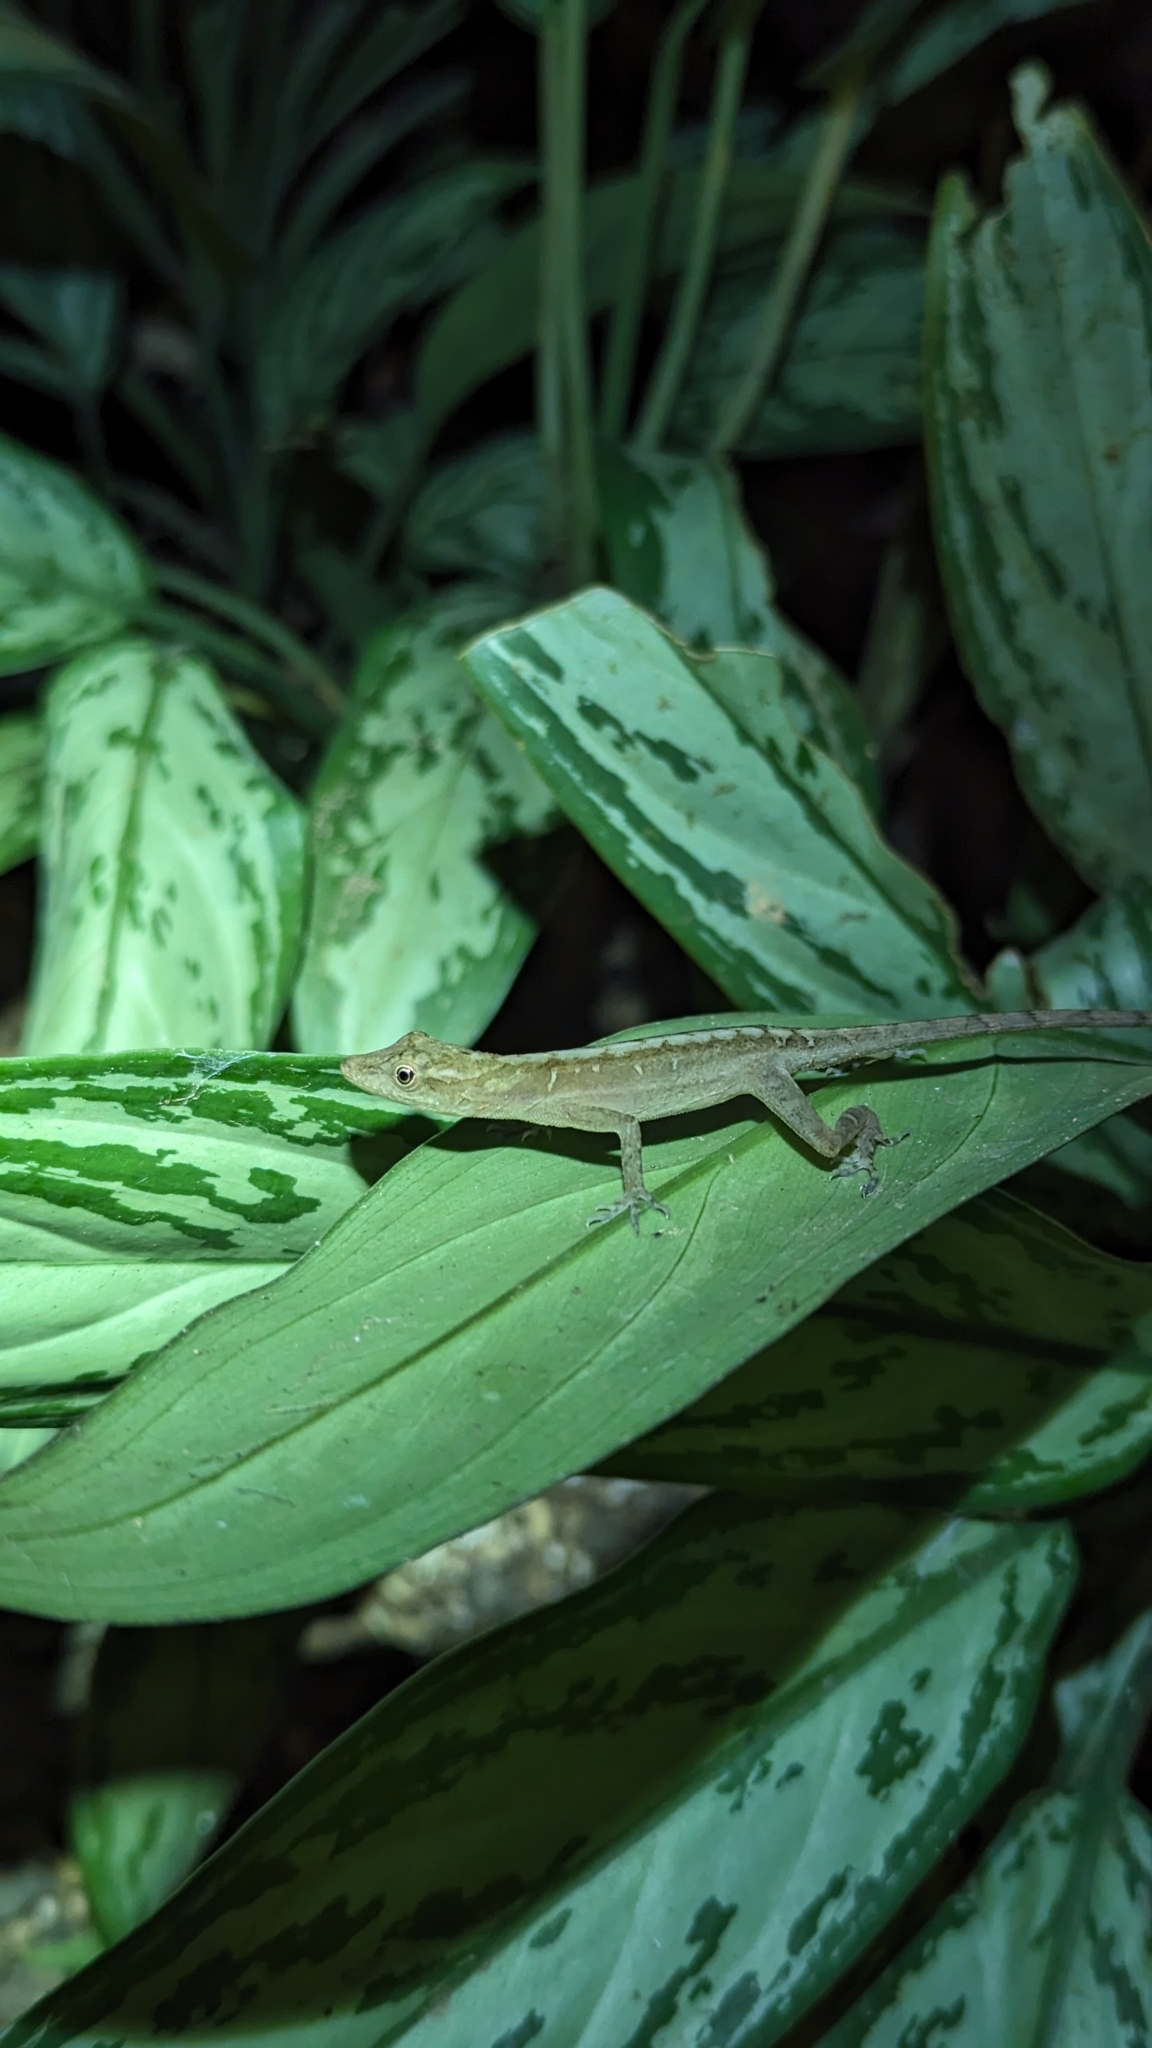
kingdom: Animalia
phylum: Chordata
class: Squamata
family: Dactyloidae
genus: Anolis
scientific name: Anolis cupreus
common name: Copper anole
